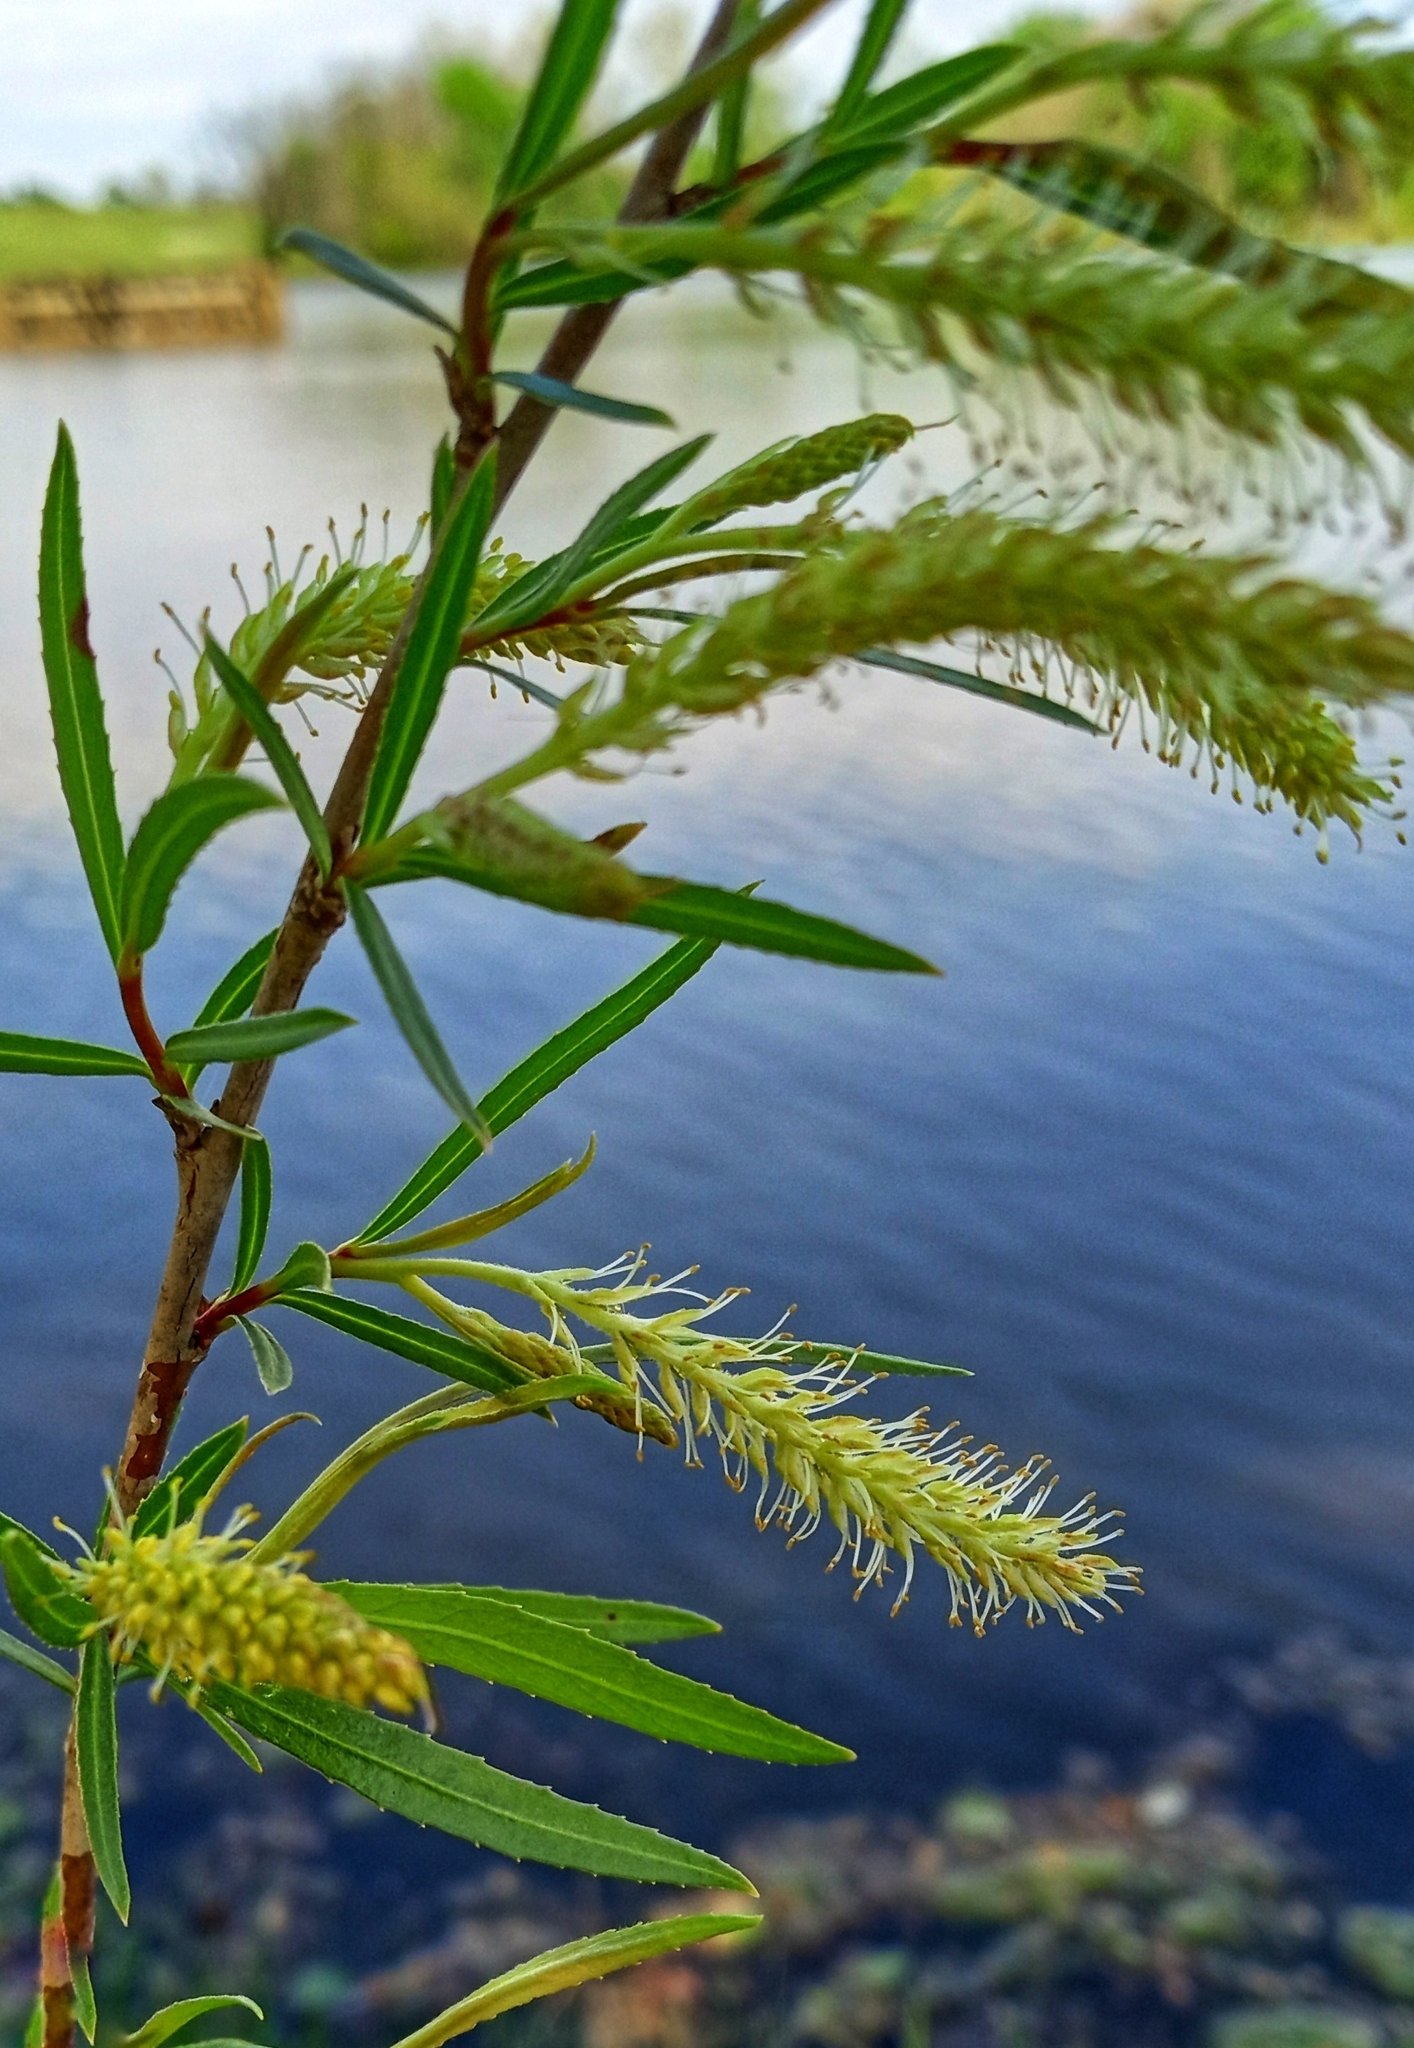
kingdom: Plantae
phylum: Tracheophyta
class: Magnoliopsida
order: Malpighiales
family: Salicaceae
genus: Salix
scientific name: Salix interior
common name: Sandbar willow
